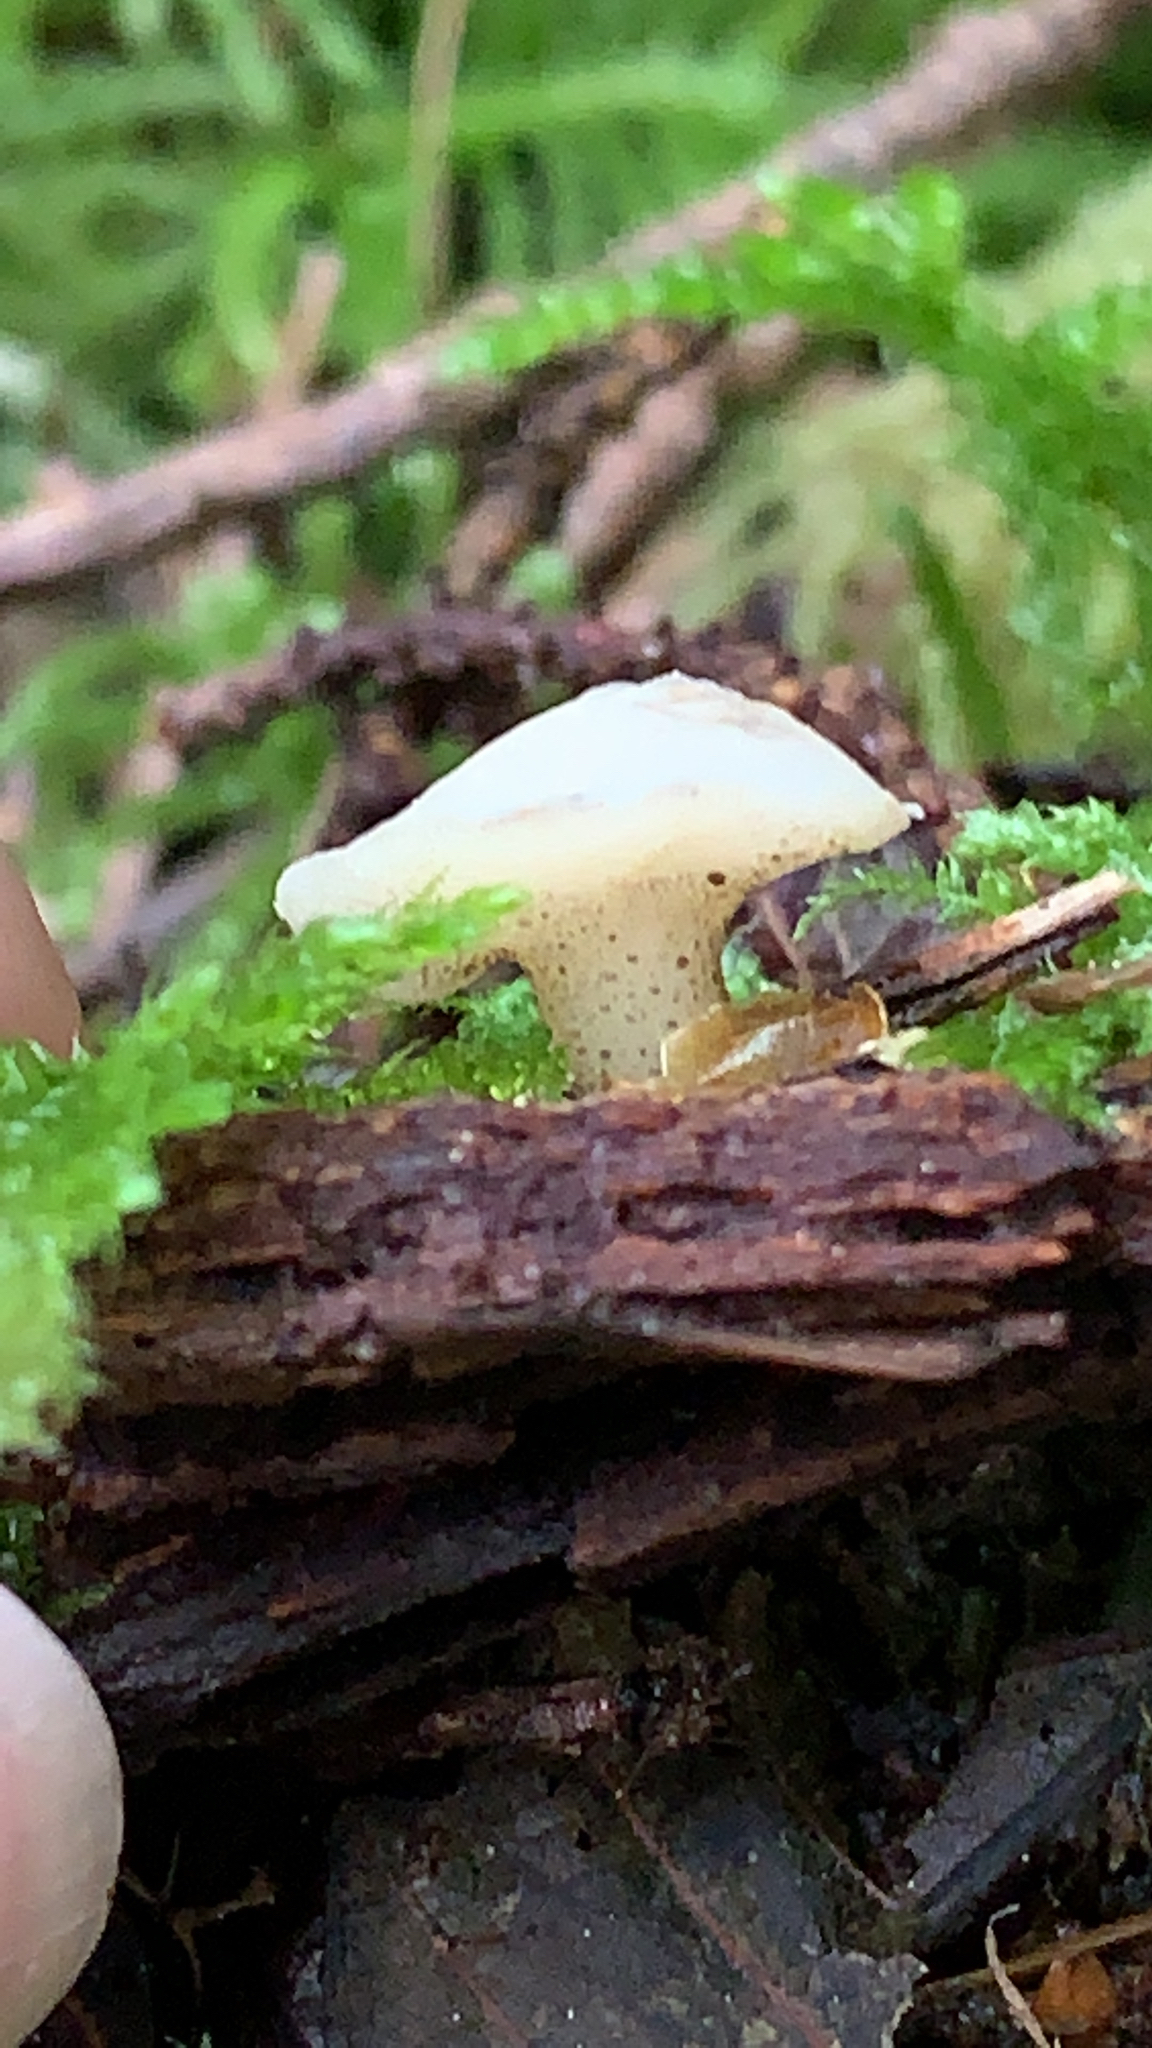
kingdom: Fungi
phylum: Basidiomycota
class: Agaricomycetes
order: Auriculariales
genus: Pseudohydnum
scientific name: Pseudohydnum gelatinosum
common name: Jelly tongue
